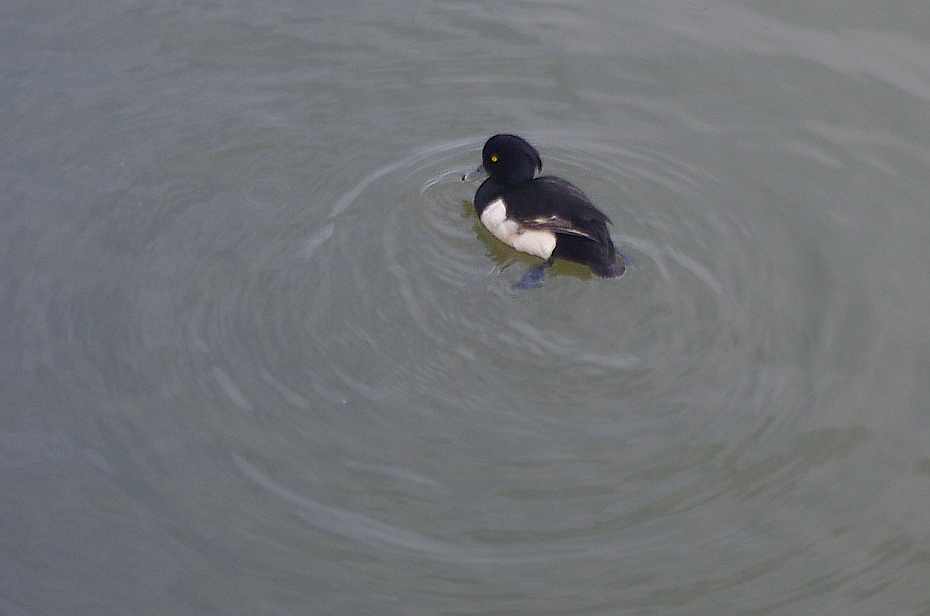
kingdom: Animalia
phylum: Chordata
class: Aves
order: Anseriformes
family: Anatidae
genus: Aythya
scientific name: Aythya fuligula
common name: Tufted duck
